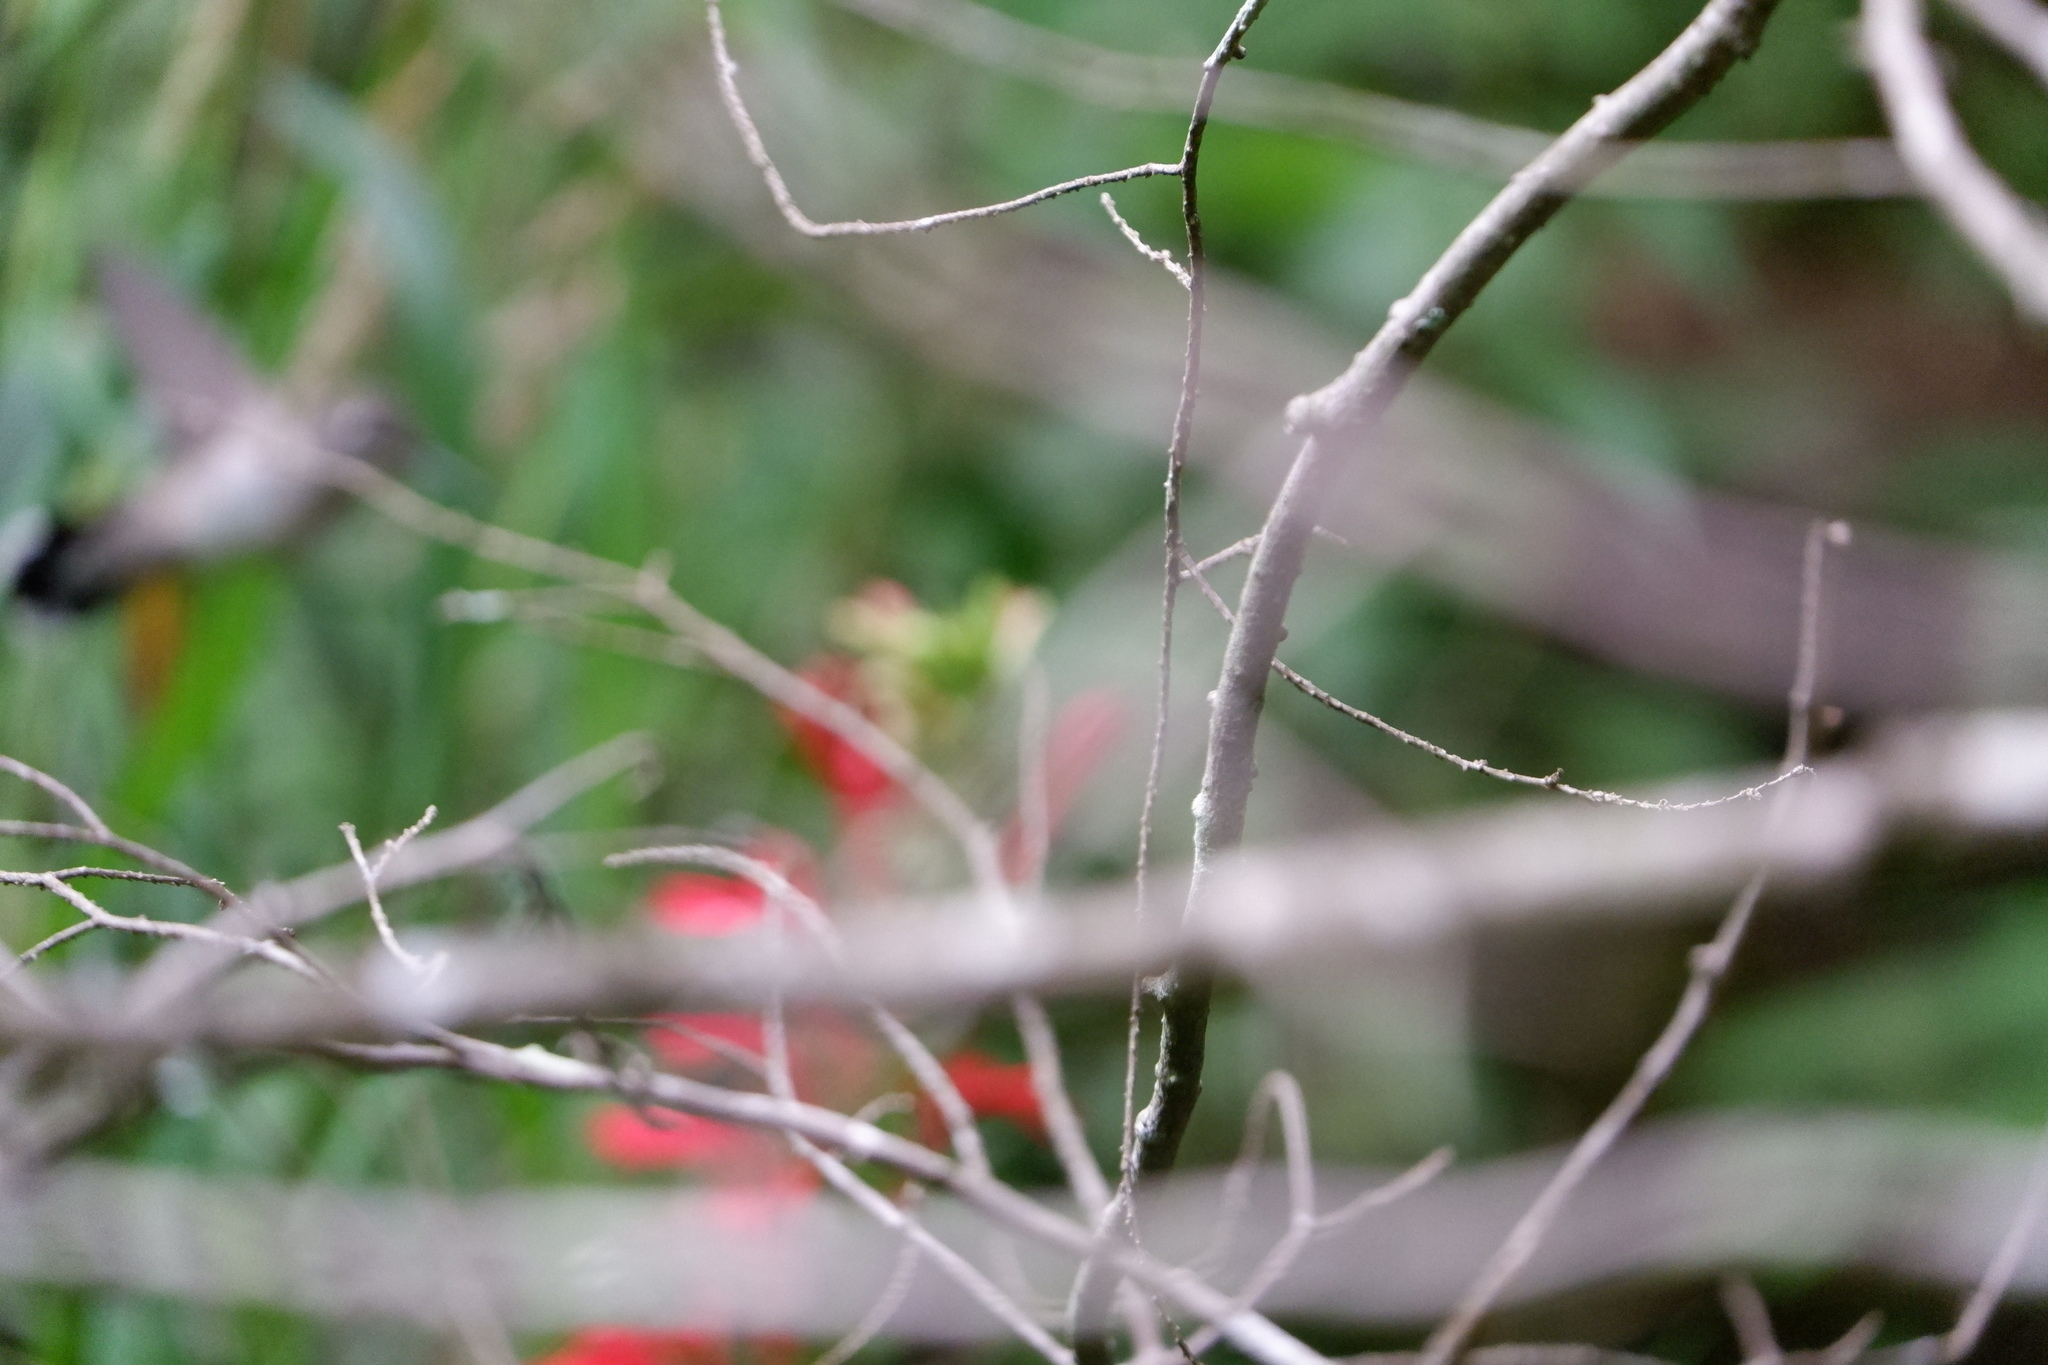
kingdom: Animalia
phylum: Chordata
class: Aves
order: Apodiformes
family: Trochilidae
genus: Archilochus
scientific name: Archilochus colubris
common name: Ruby-throated hummingbird
